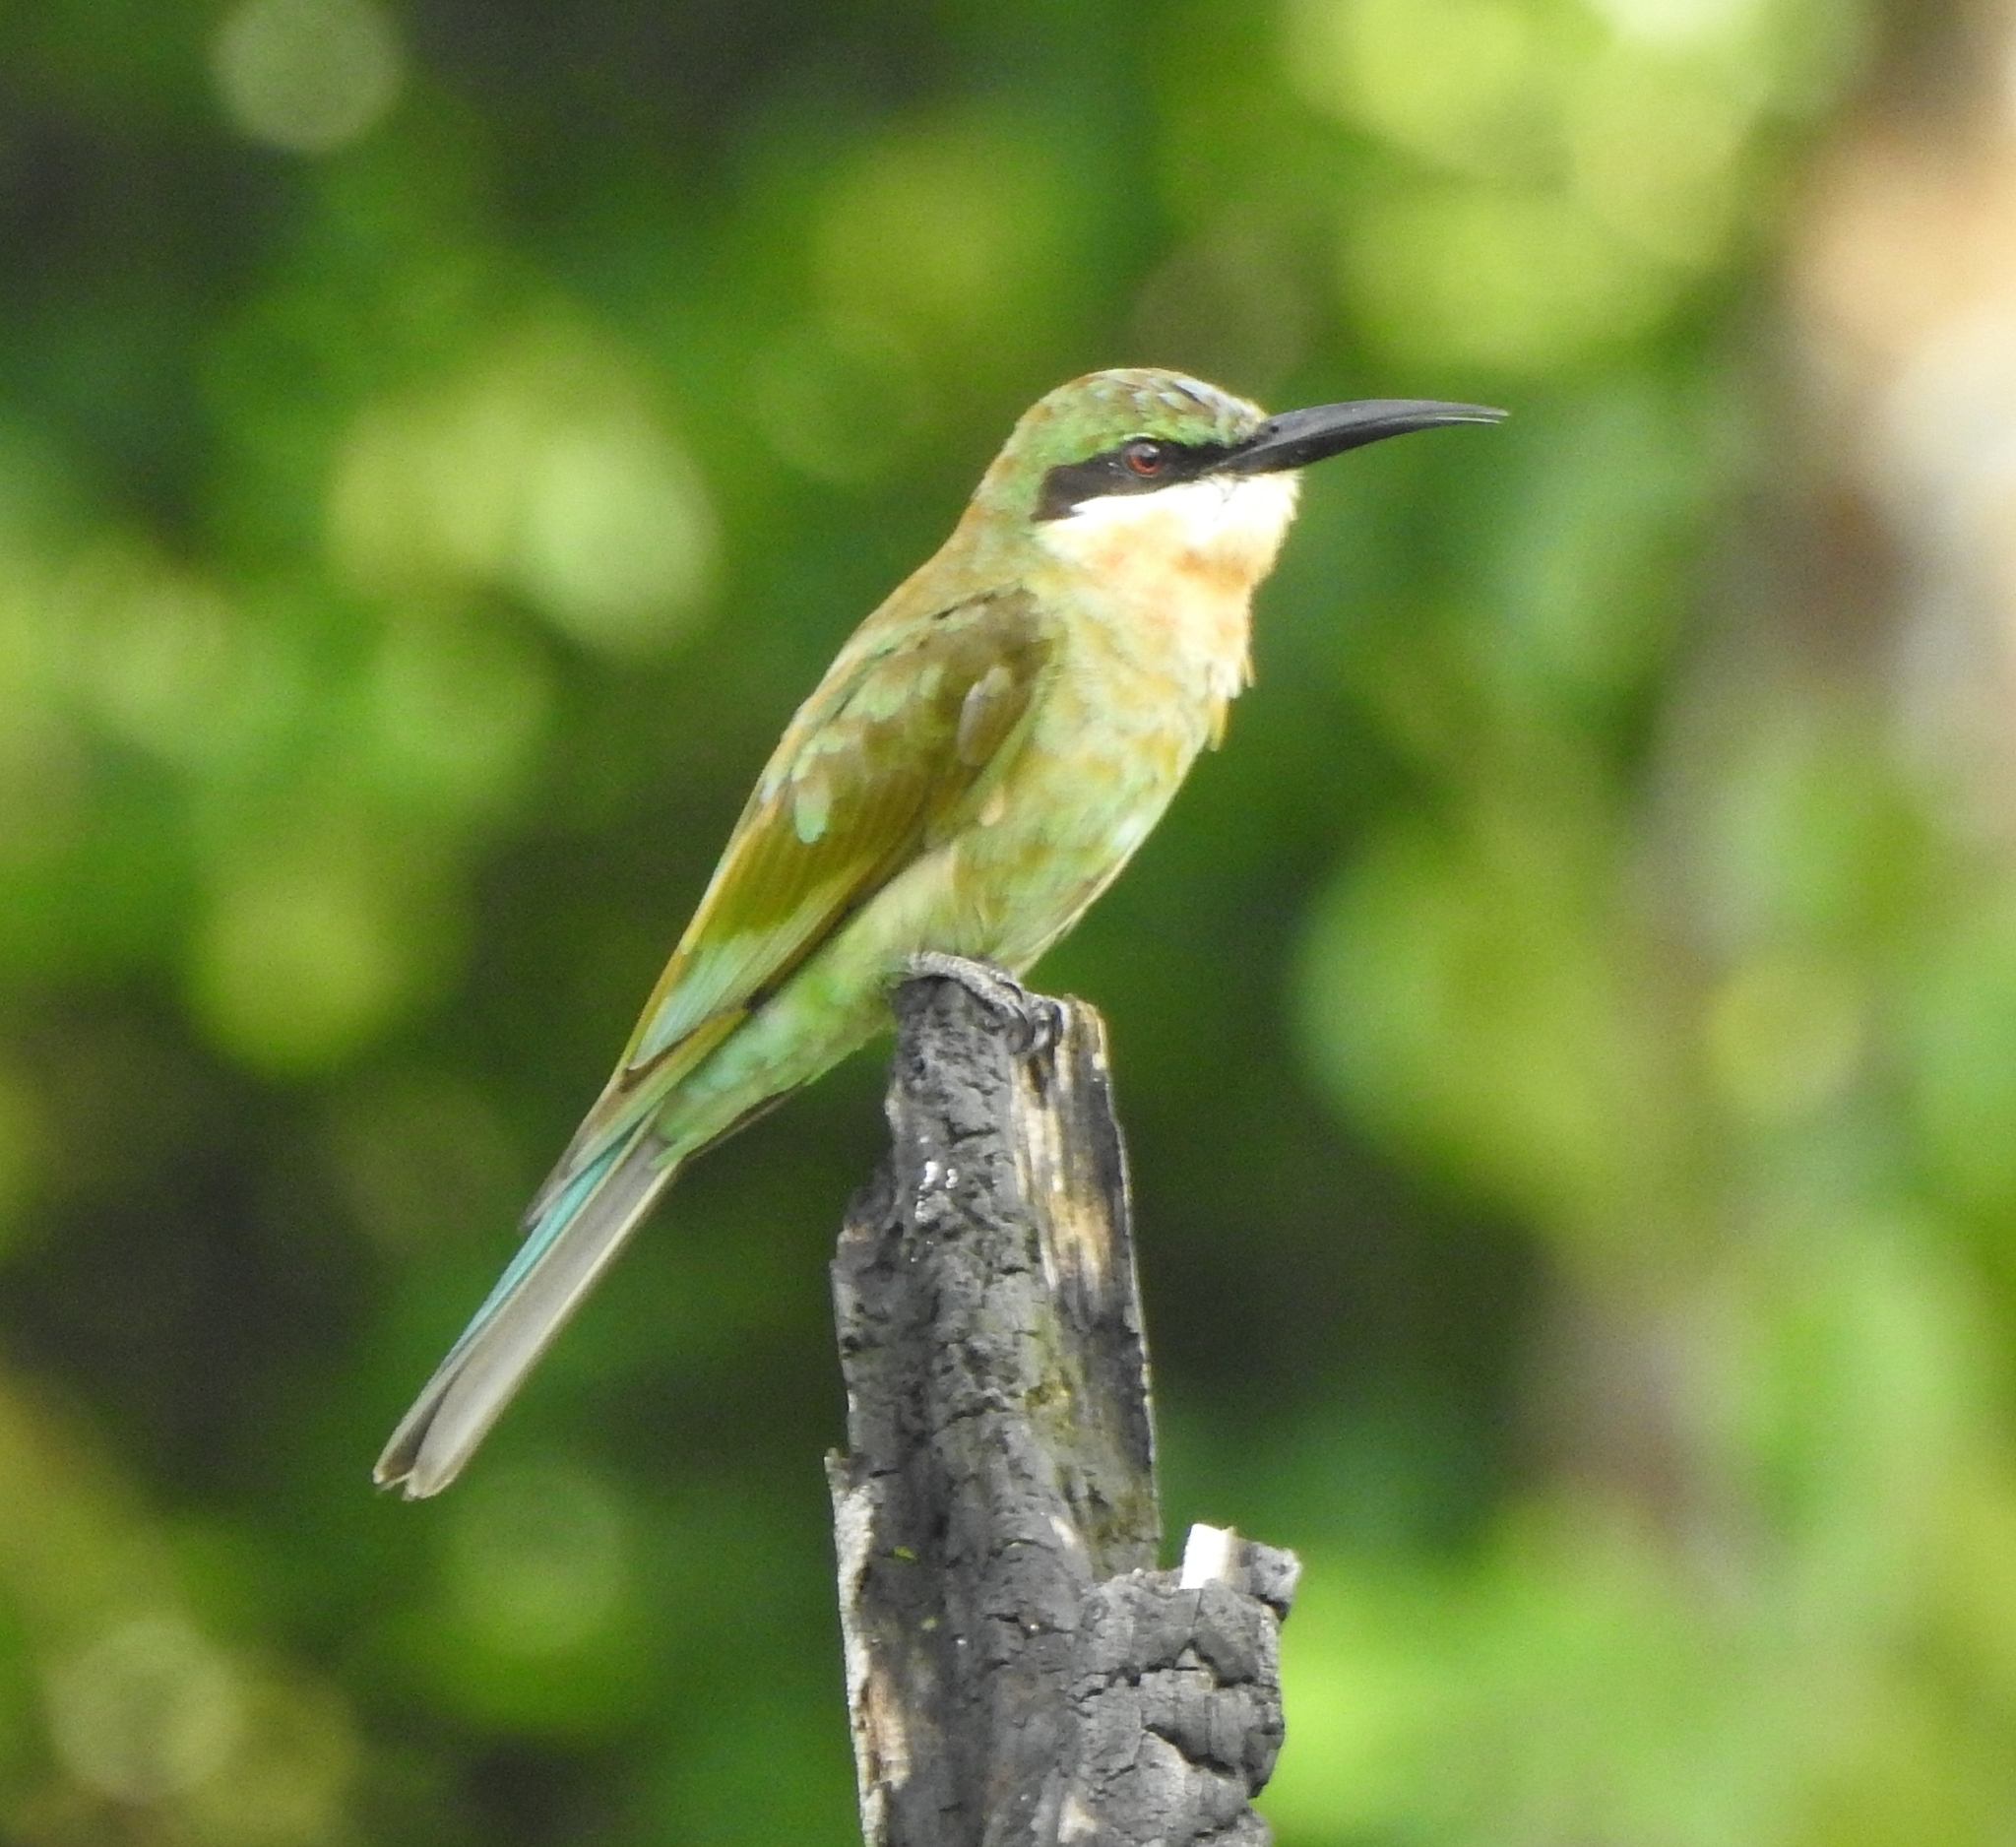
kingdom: Animalia
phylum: Chordata
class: Aves
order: Coraciiformes
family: Meropidae
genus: Merops
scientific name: Merops philippinus
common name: Blue-tailed bee-eater
